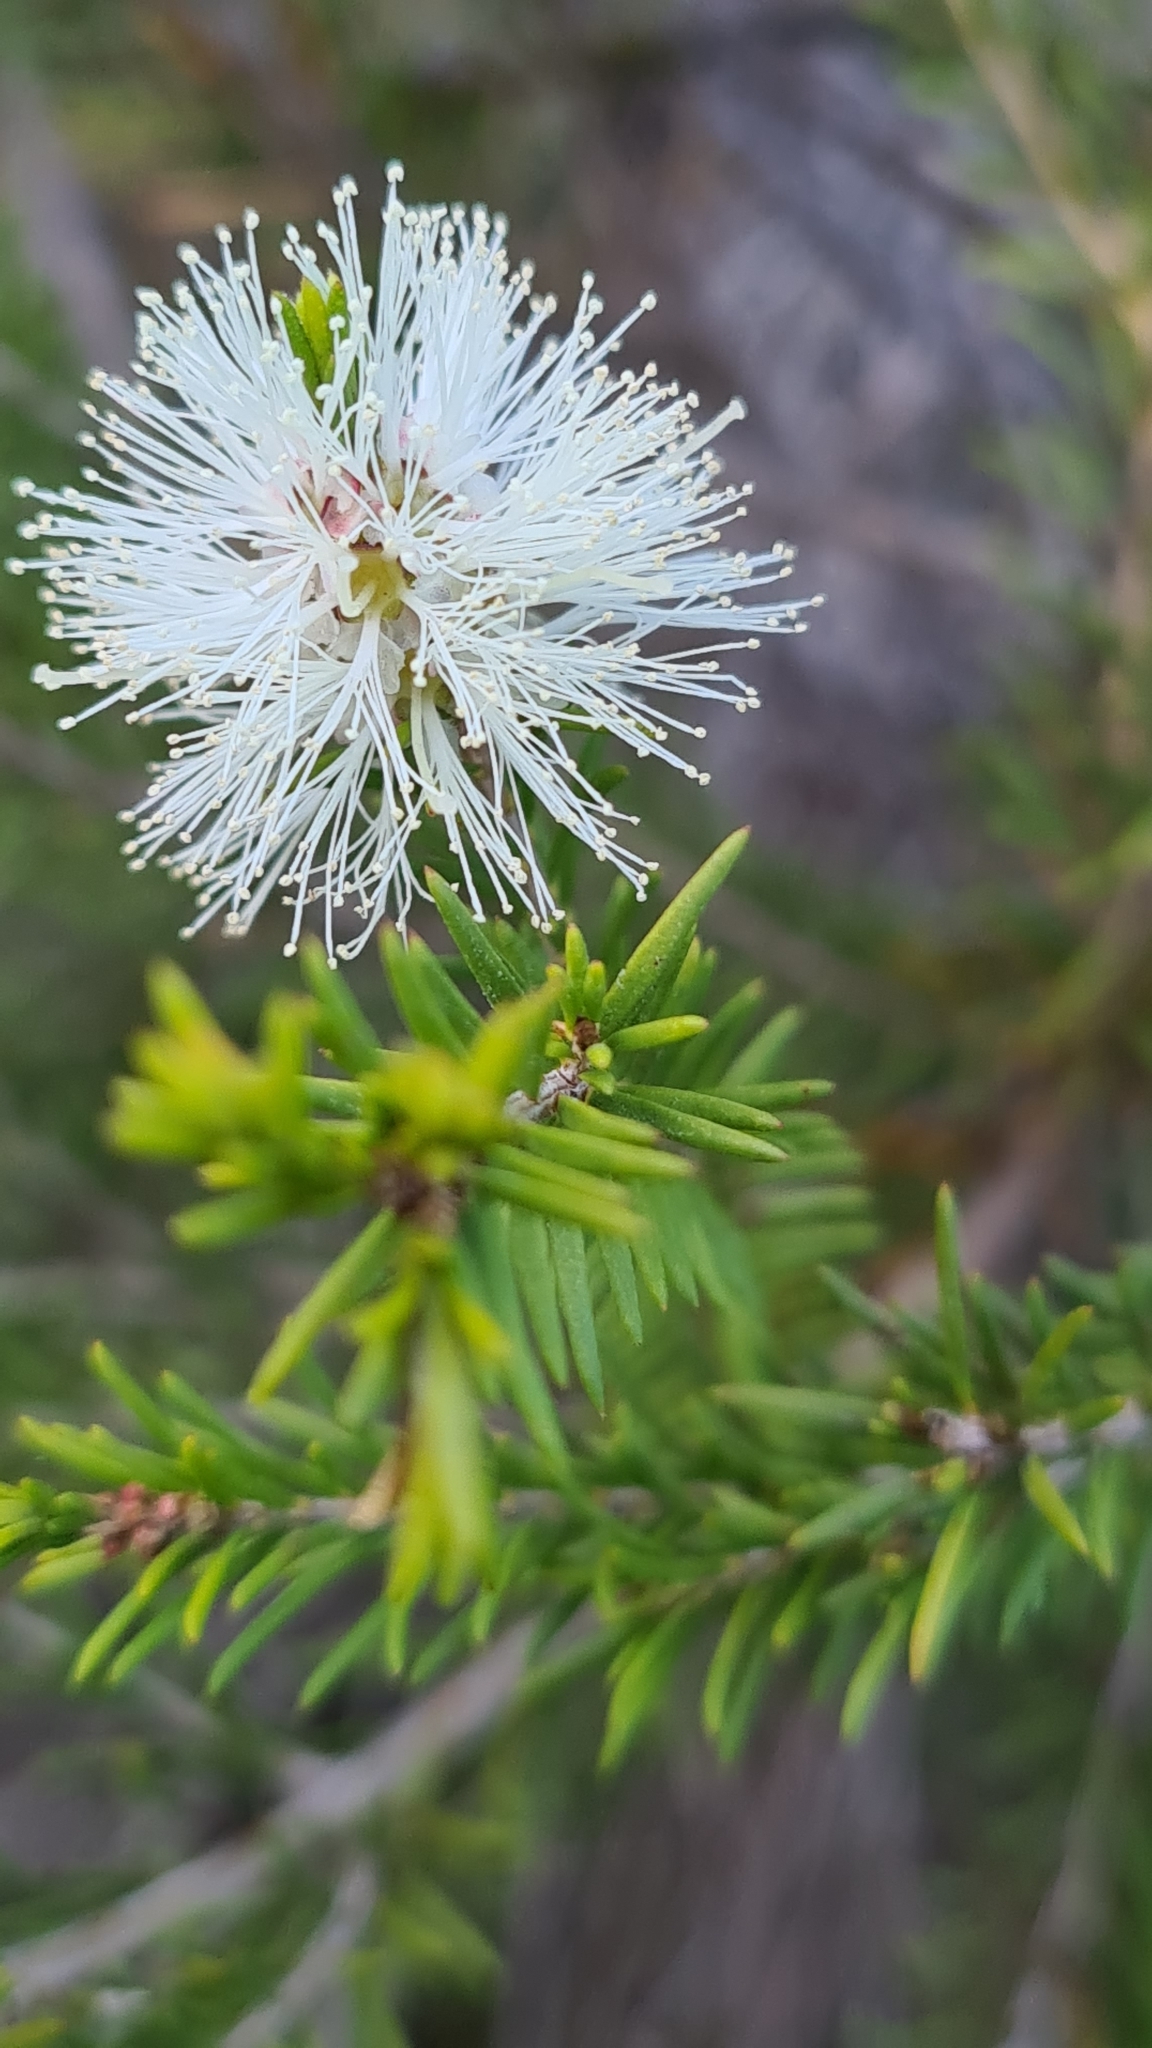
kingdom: Plantae
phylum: Tracheophyta
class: Magnoliopsida
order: Myrtales
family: Myrtaceae
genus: Melaleuca
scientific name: Melaleuca ericifolia
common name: Paperbark teatree
